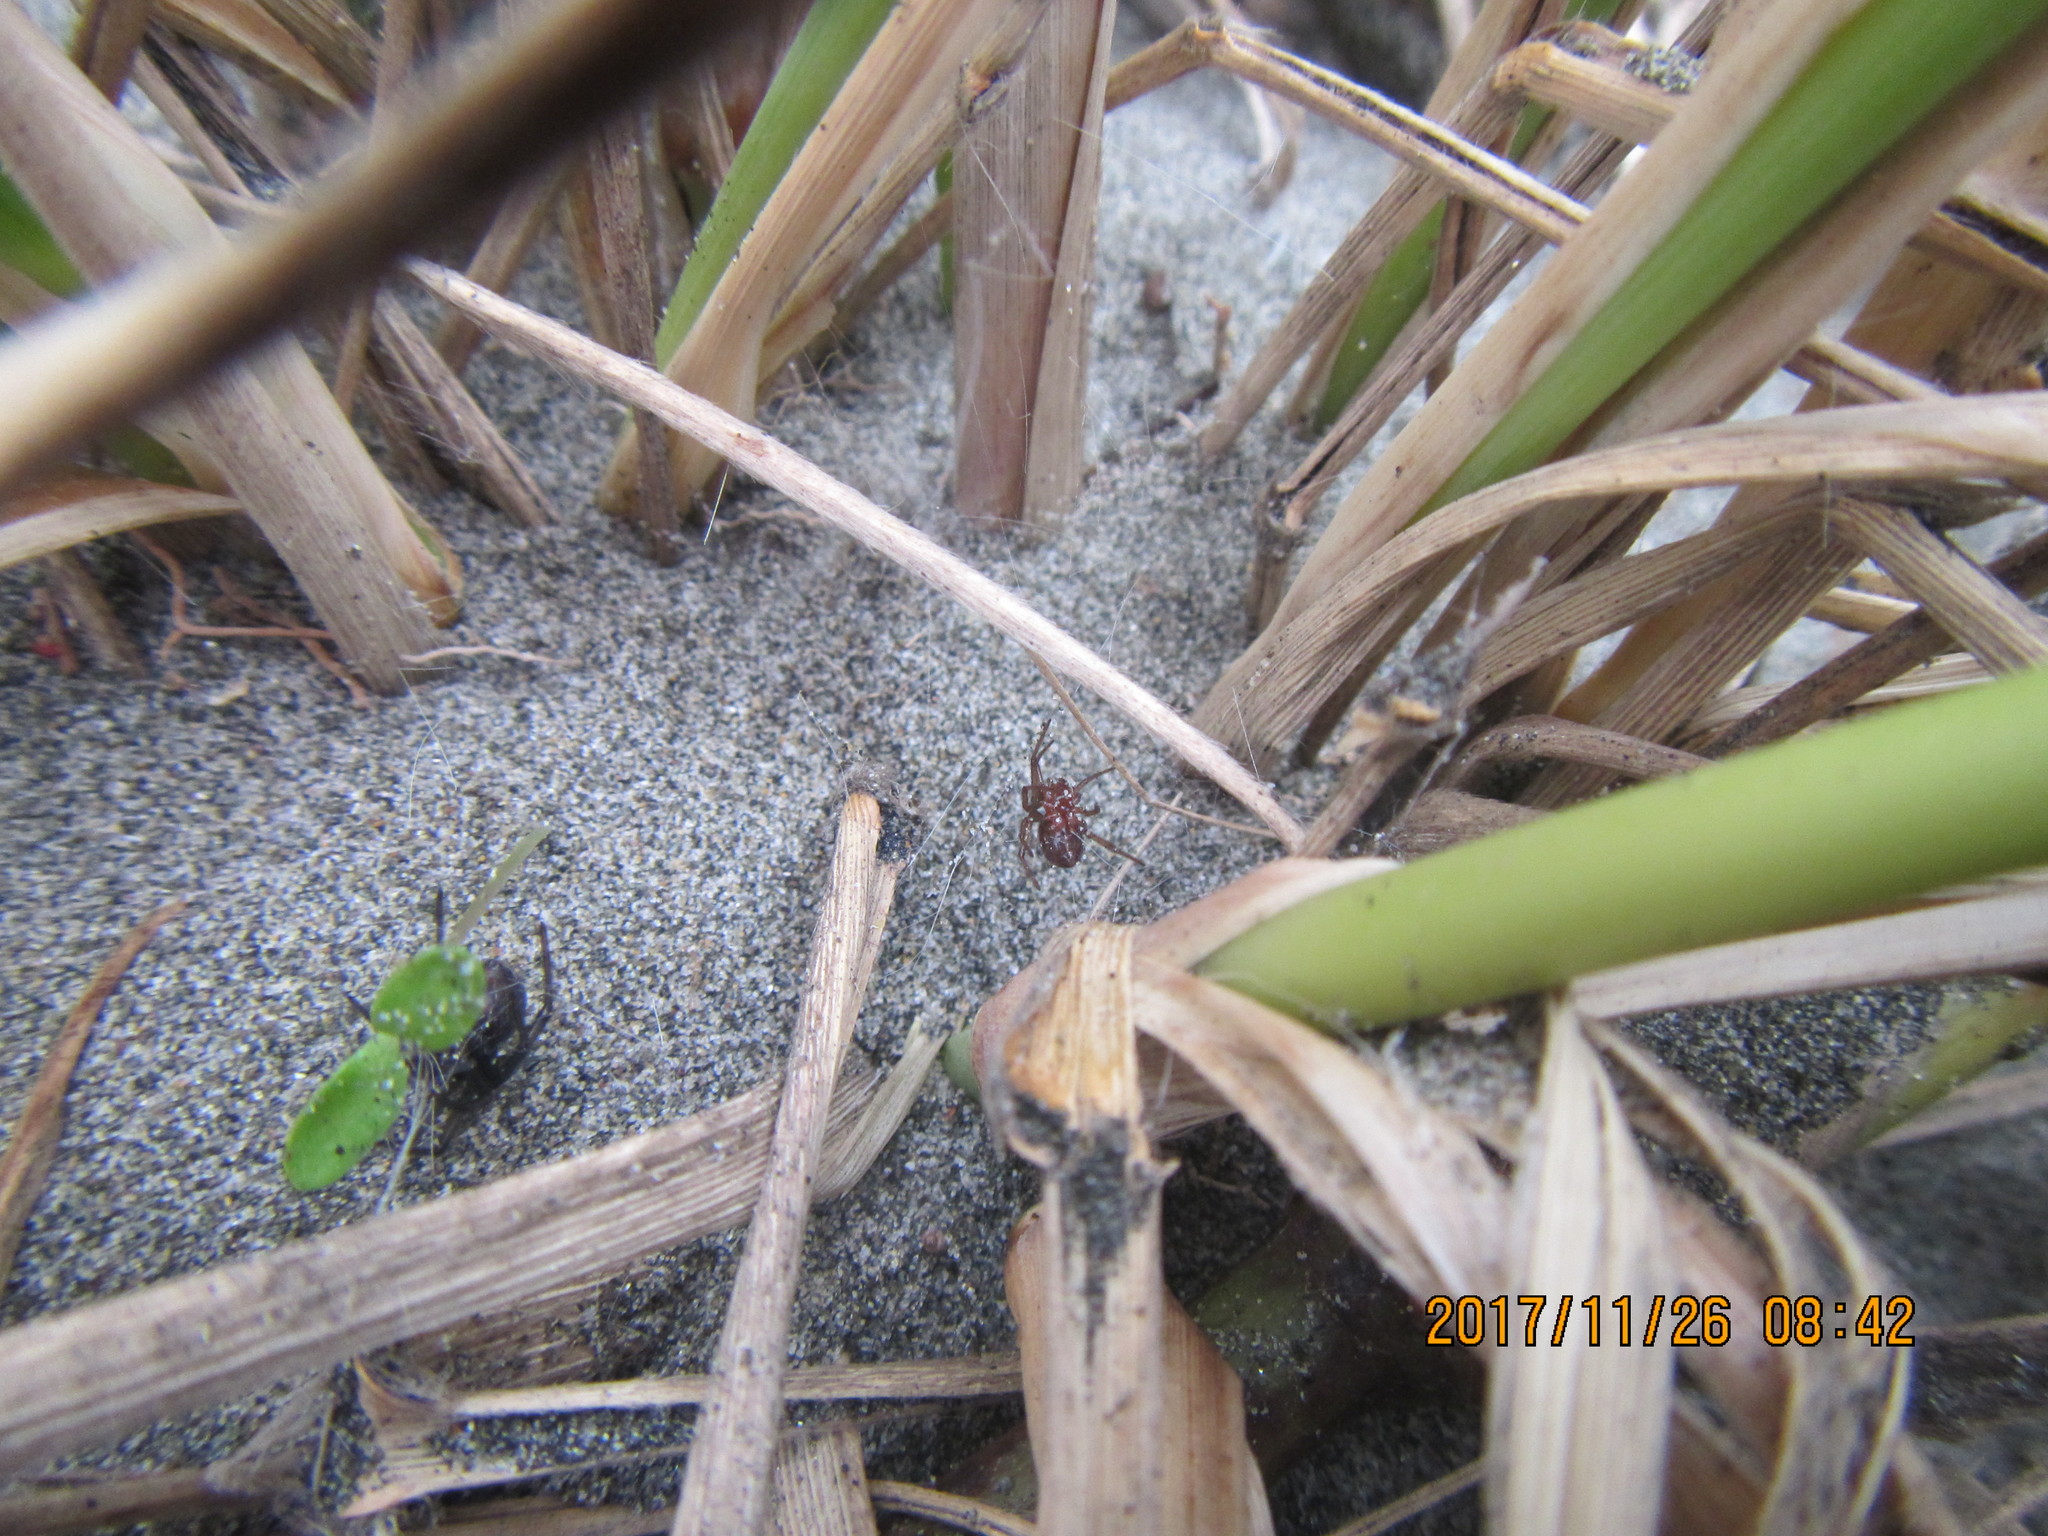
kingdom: Animalia
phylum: Arthropoda
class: Arachnida
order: Araneae
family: Theridiidae
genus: Steatoda
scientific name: Steatoda capensis
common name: Cobweb weaver
